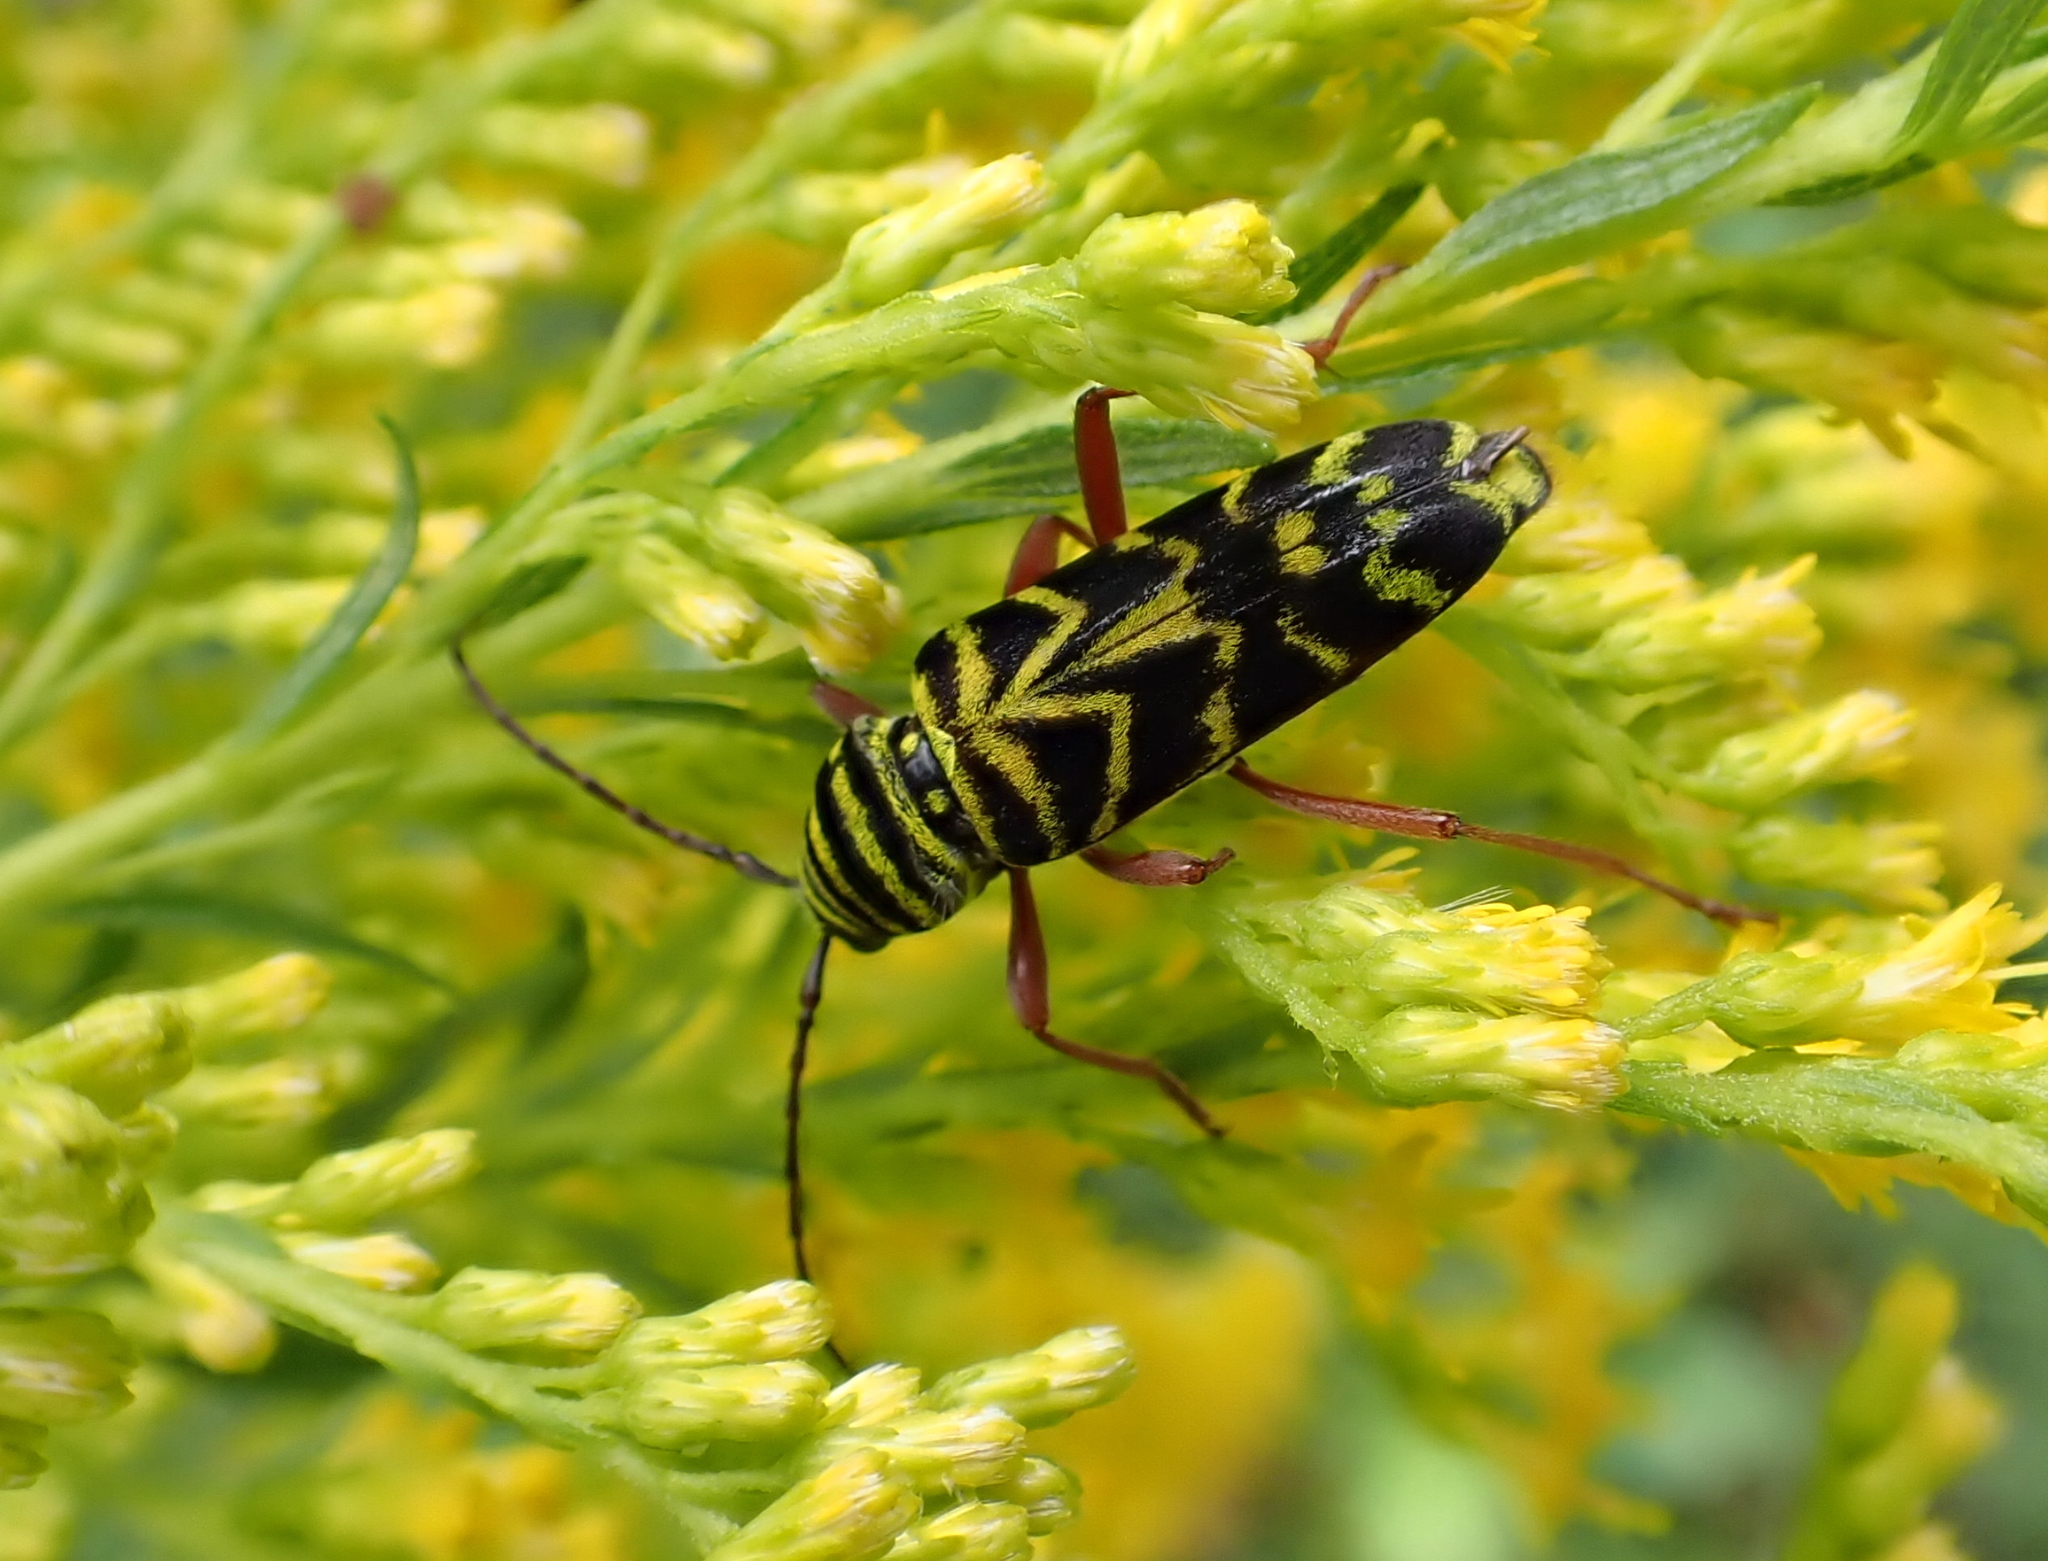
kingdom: Animalia
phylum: Arthropoda
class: Insecta
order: Coleoptera
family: Cerambycidae
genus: Megacyllene
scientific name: Megacyllene robiniae
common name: Locust borer
